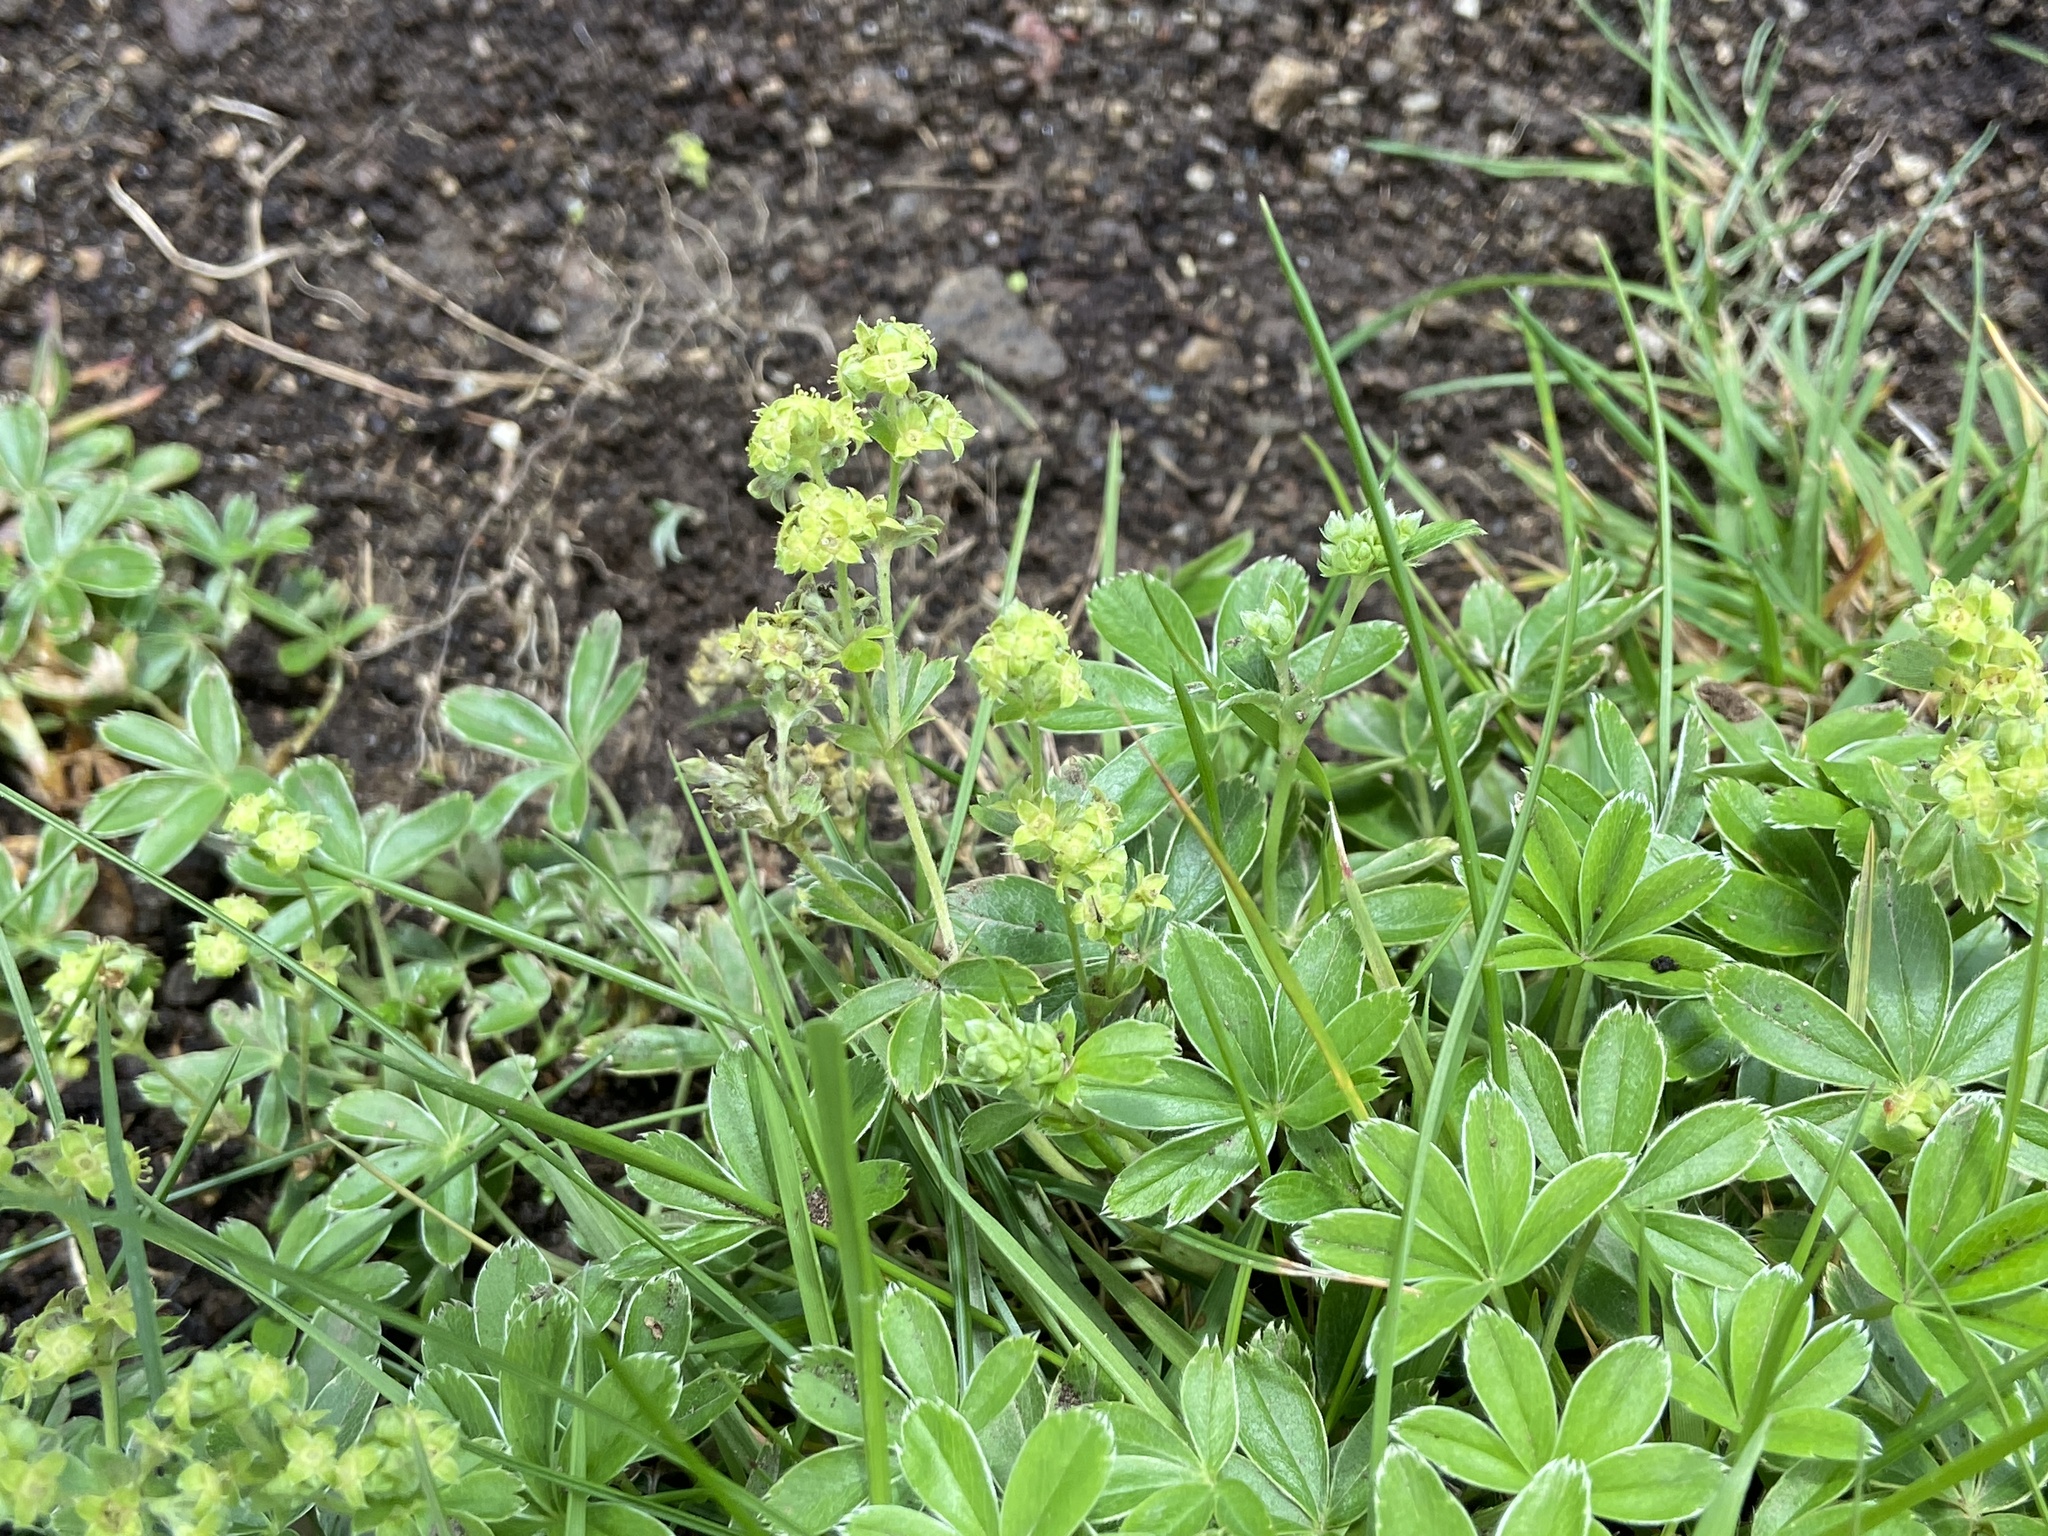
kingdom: Plantae
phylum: Tracheophyta
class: Magnoliopsida
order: Rosales
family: Rosaceae
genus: Alchemilla
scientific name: Alchemilla alpina
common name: Alpine lady's-mantle
